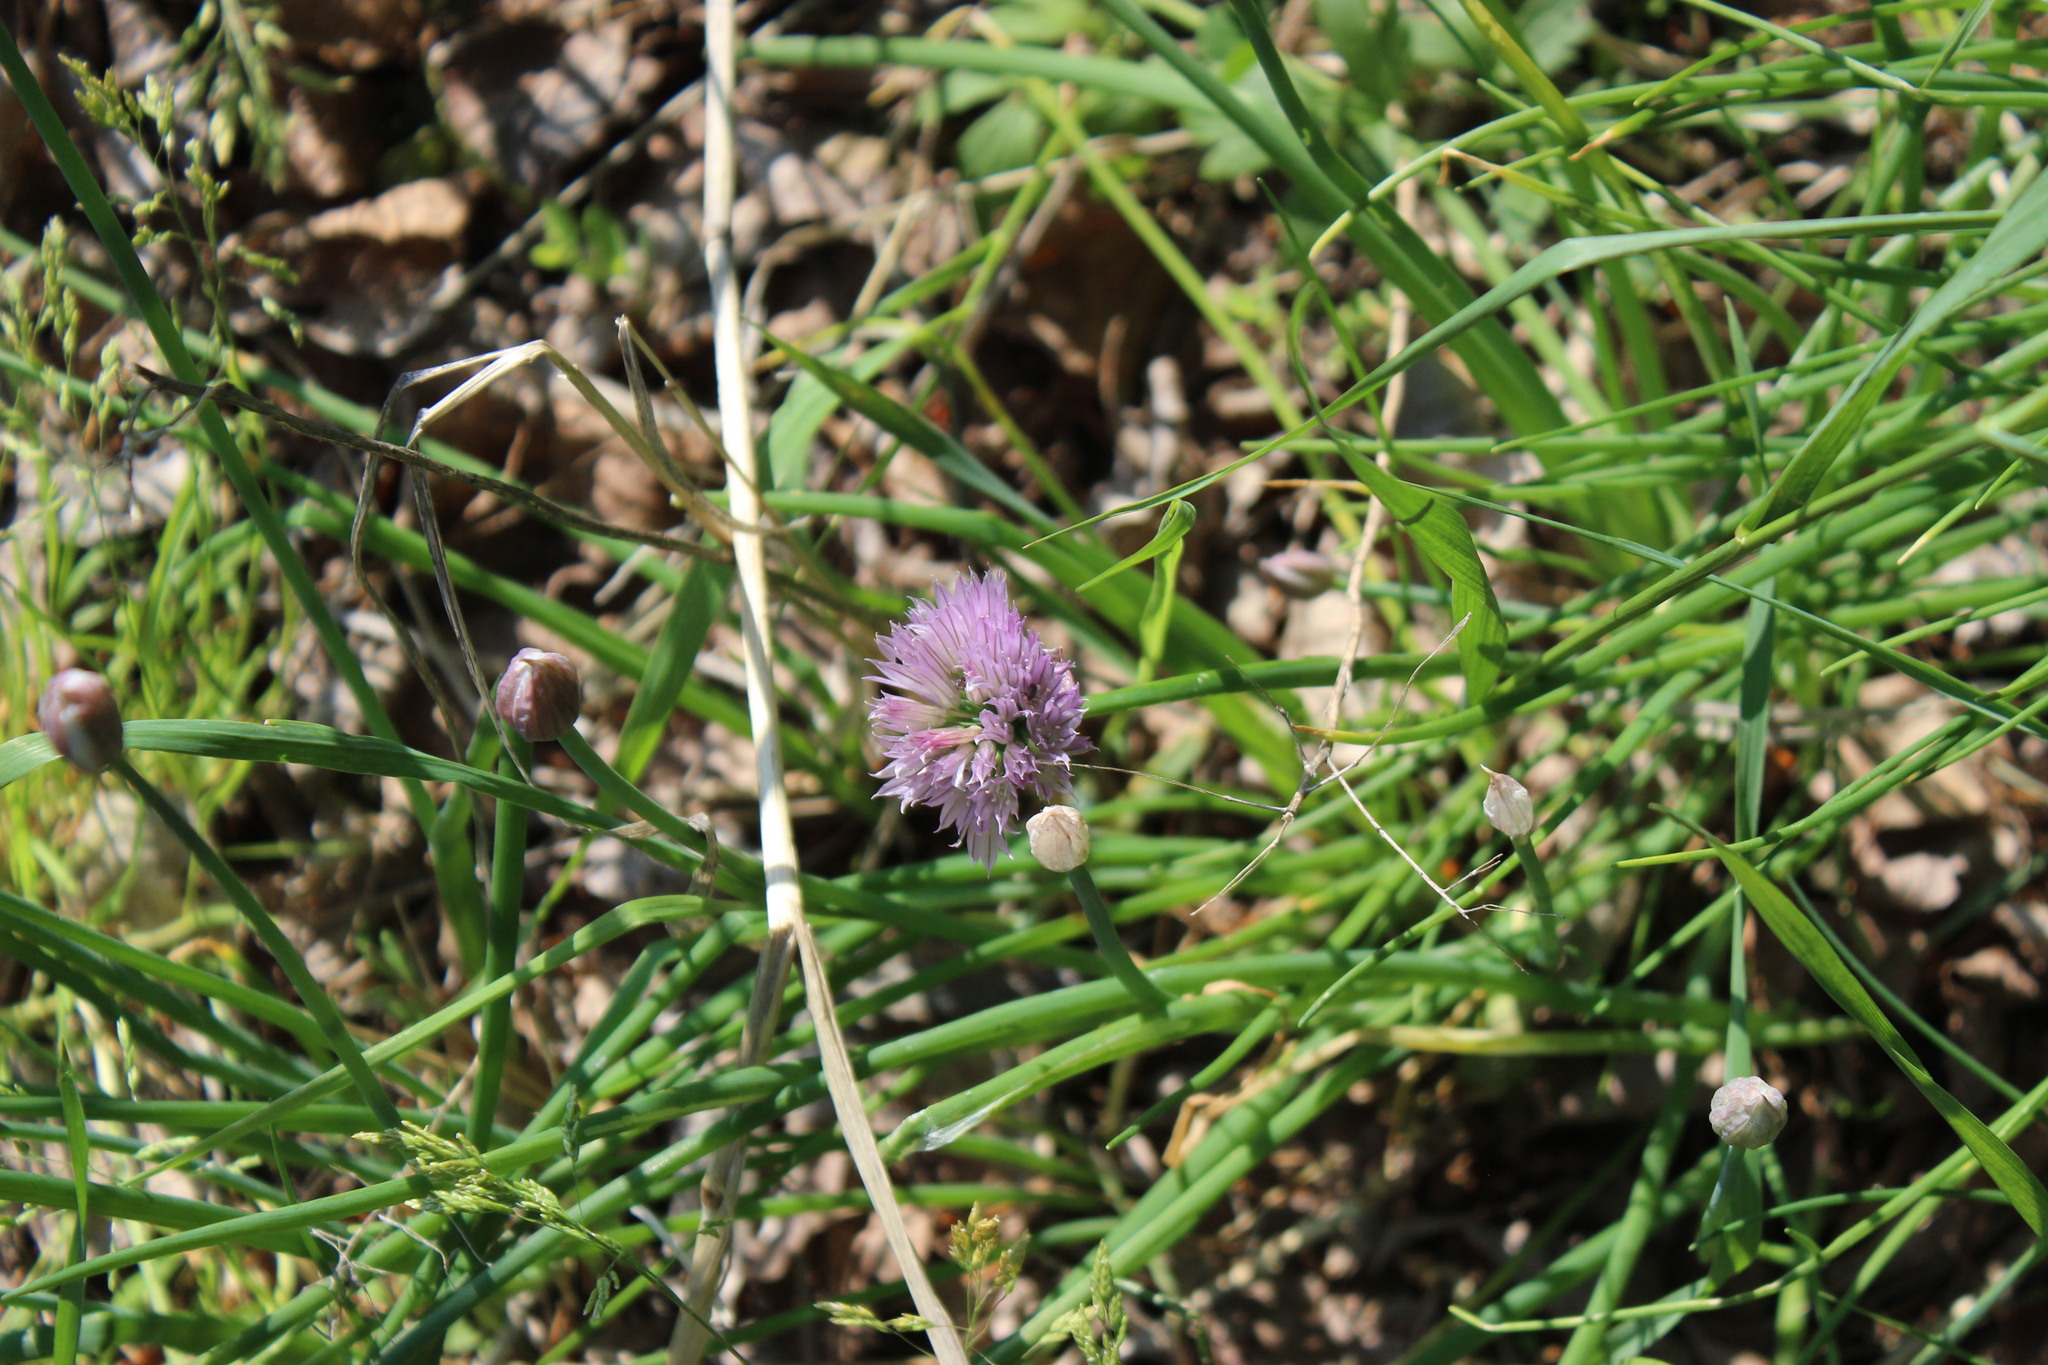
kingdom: Plantae
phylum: Tracheophyta
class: Liliopsida
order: Asparagales
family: Amaryllidaceae
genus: Allium
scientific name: Allium schoenoprasum
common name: Chives
